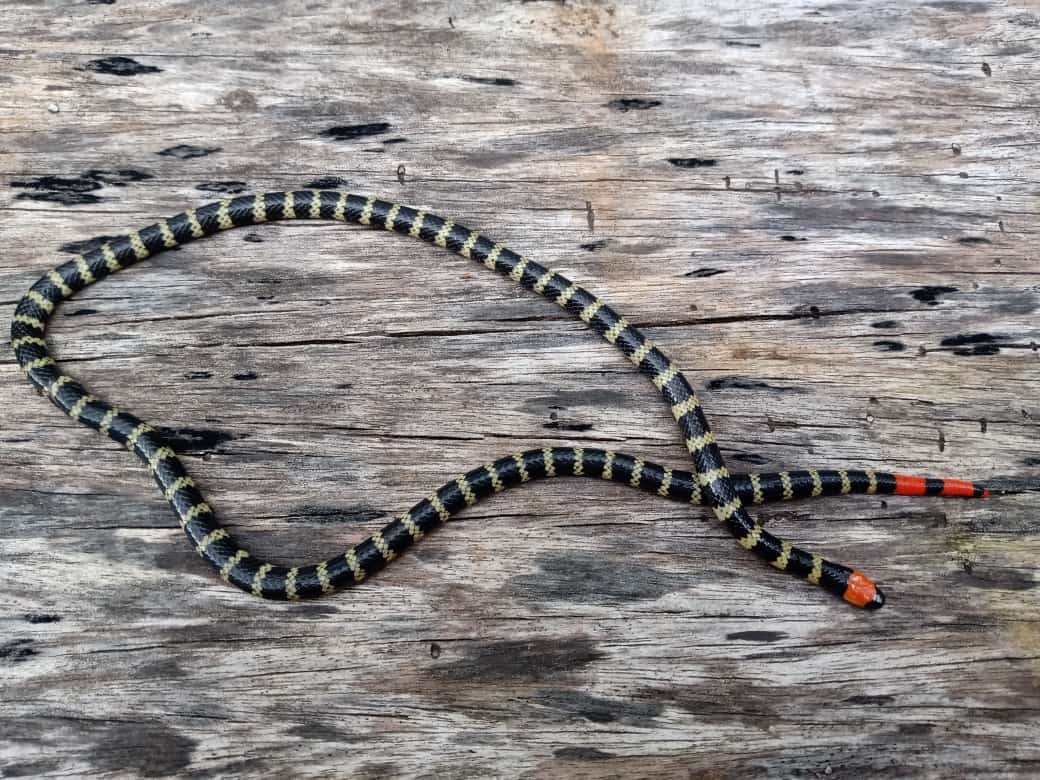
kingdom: Animalia
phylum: Chordata
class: Squamata
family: Elapidae
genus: Micrurus
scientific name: Micrurus mipartitus
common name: Redtail coral snake
